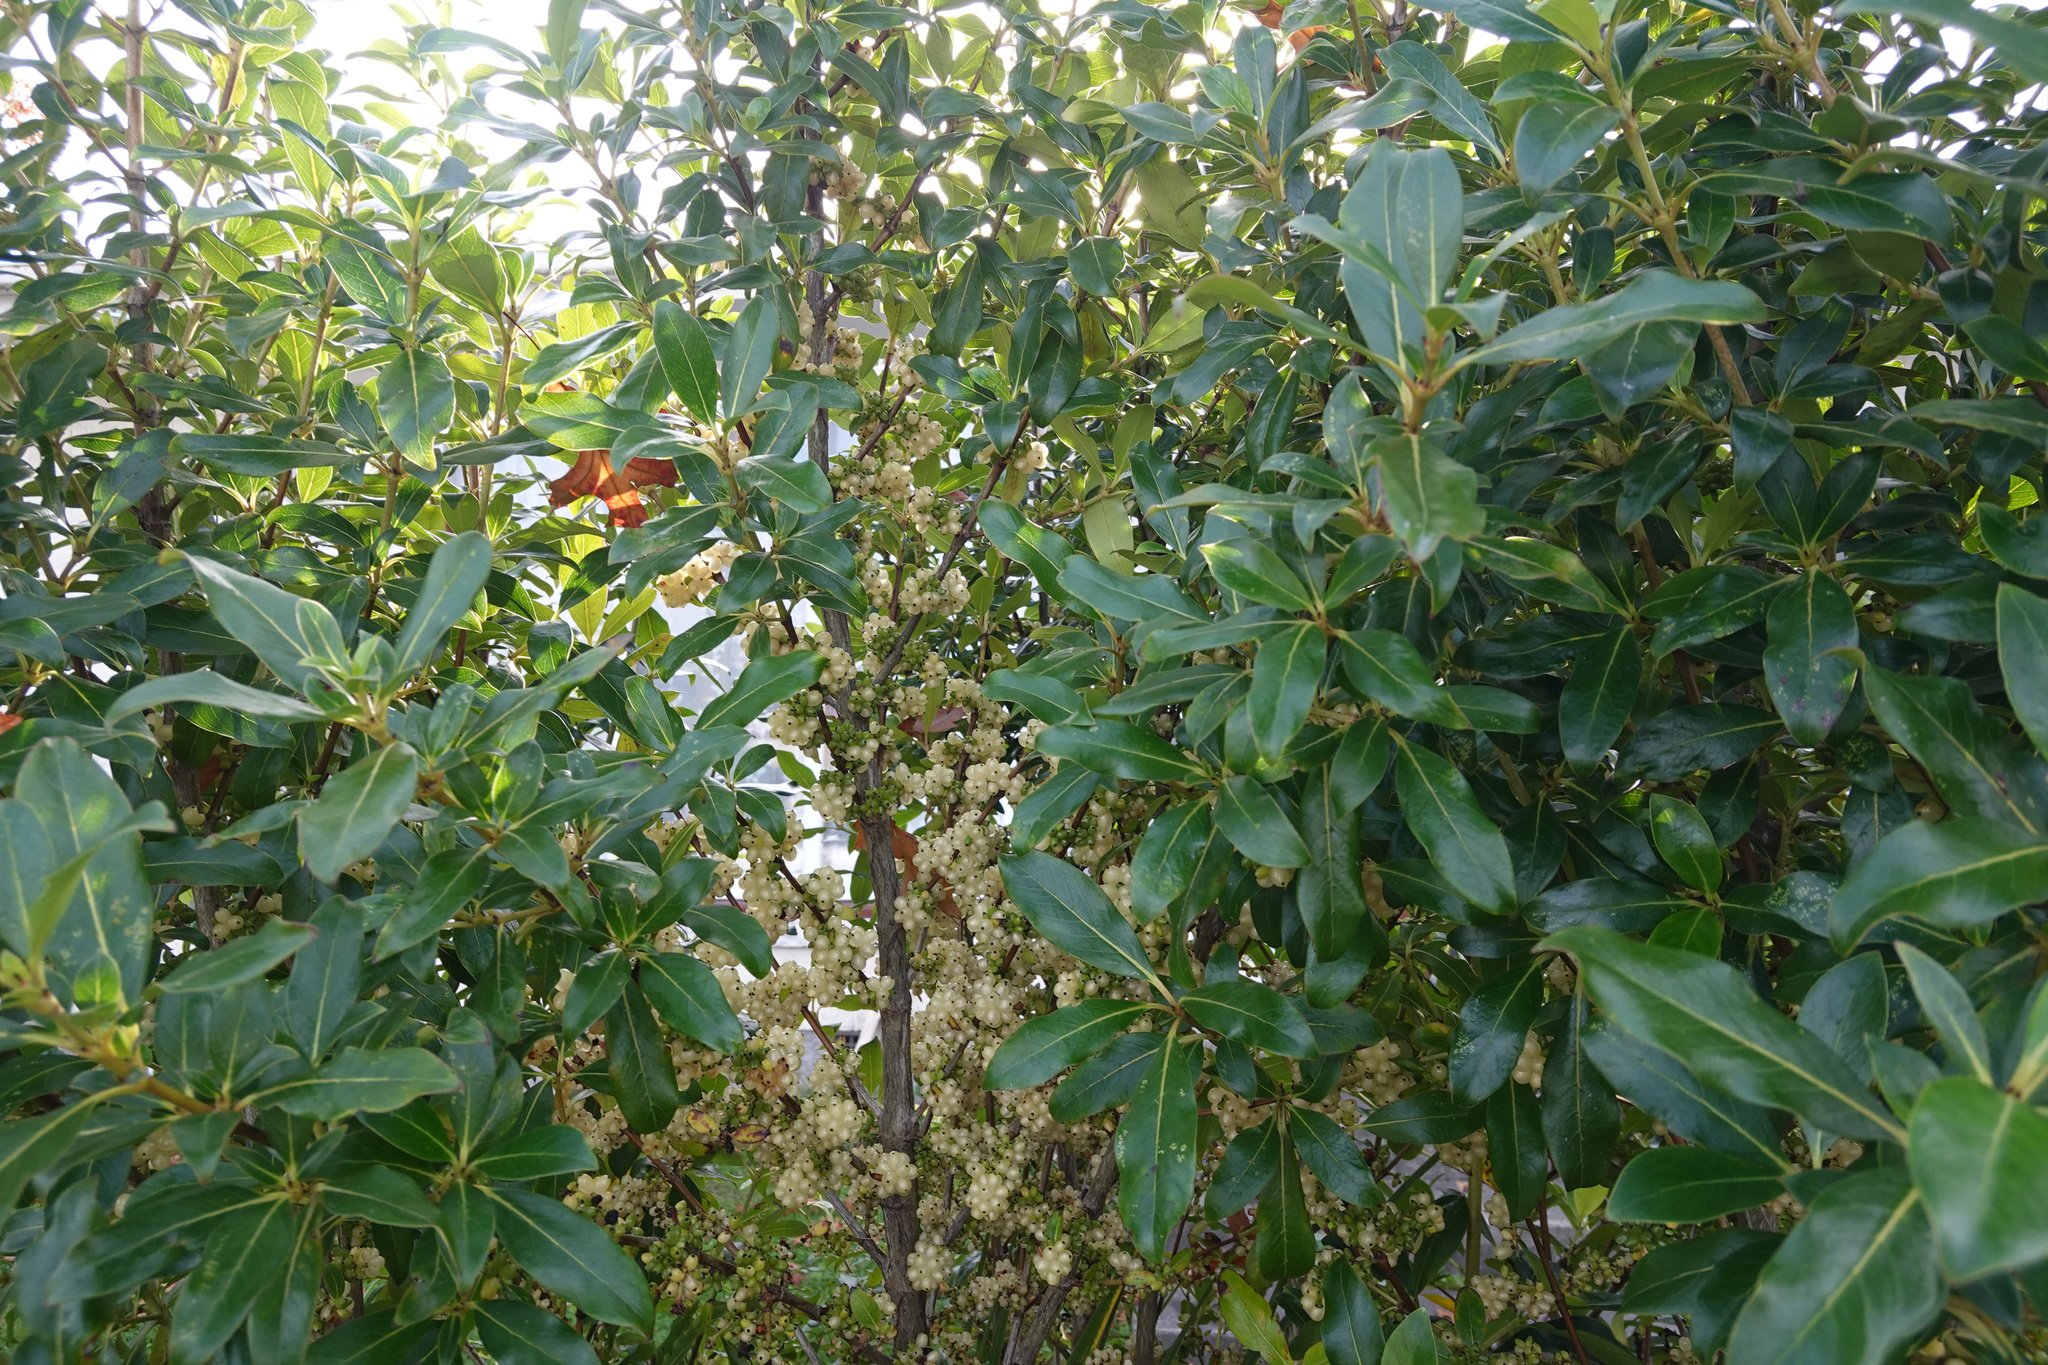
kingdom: Plantae
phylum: Tracheophyta
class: Magnoliopsida
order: Gentianales
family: Rubiaceae
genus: Coprosma
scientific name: Coprosma cunninghamii
